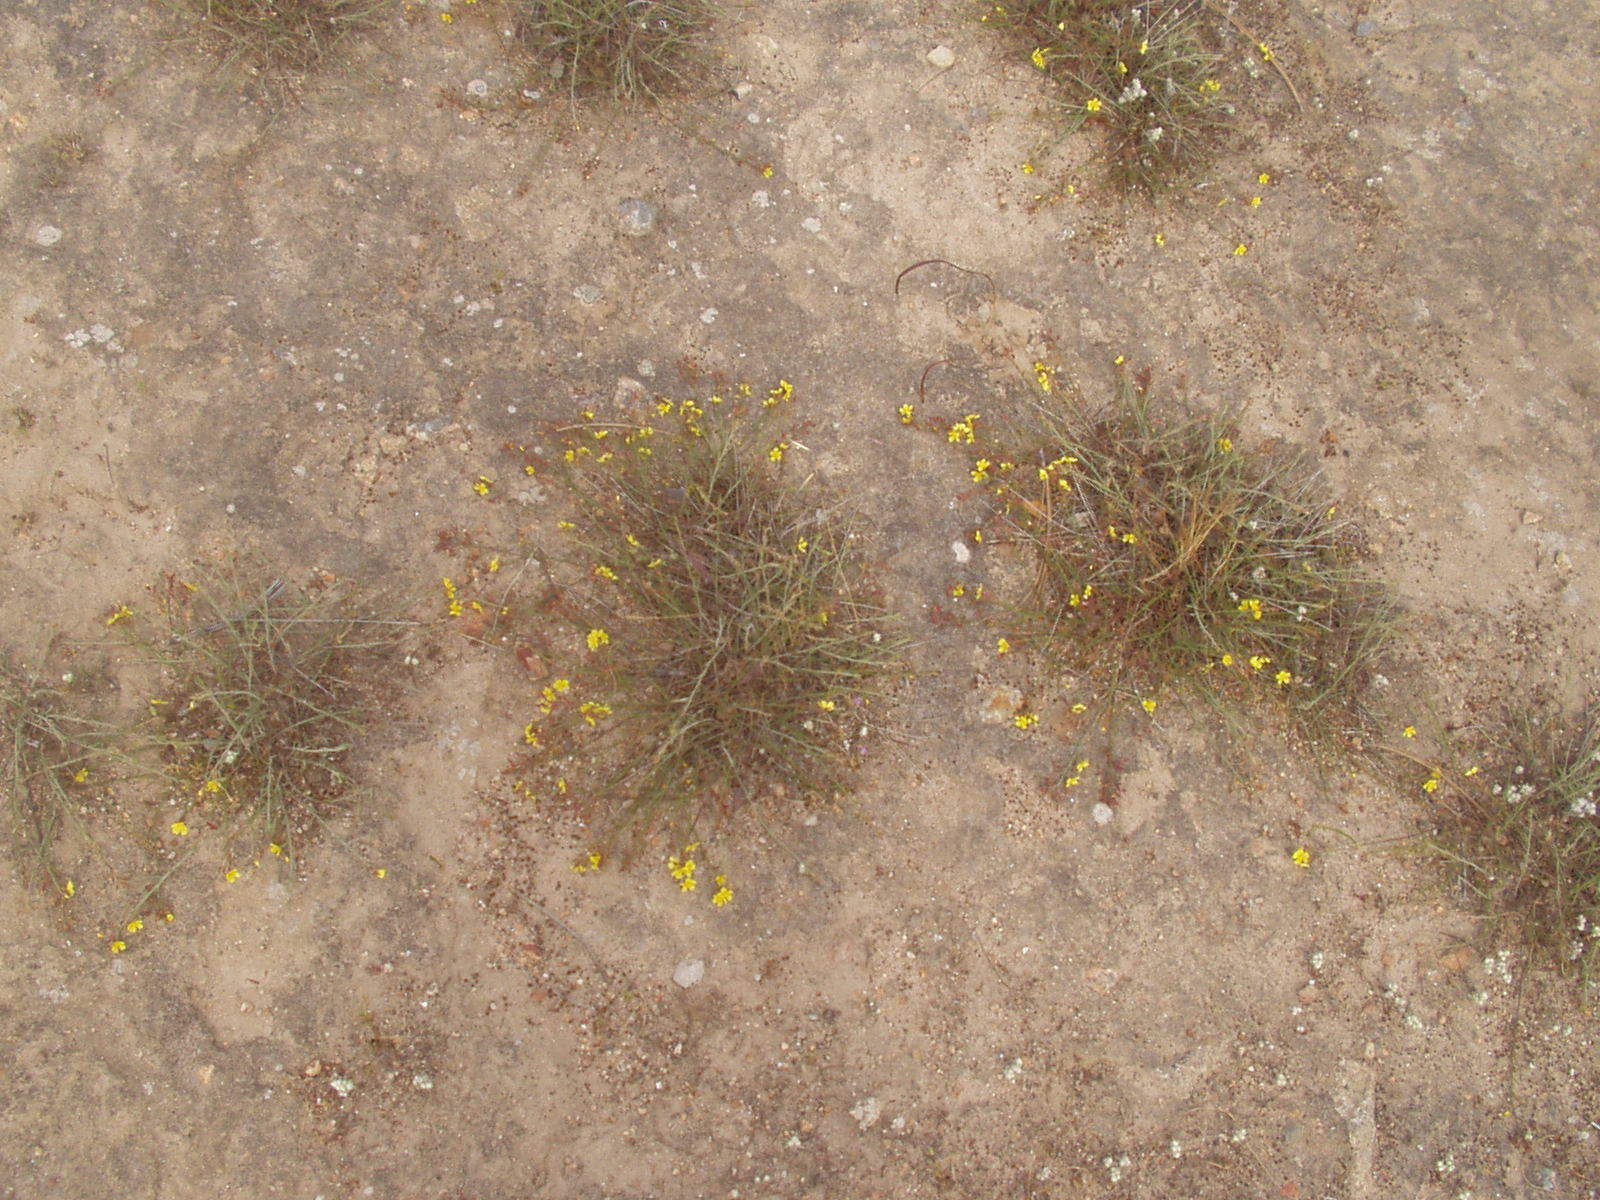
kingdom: Plantae
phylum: Tracheophyta
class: Magnoliopsida
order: Malvales
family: Cistaceae
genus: Crocanthemum
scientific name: Crocanthemum scoparium
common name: Broom-rose
